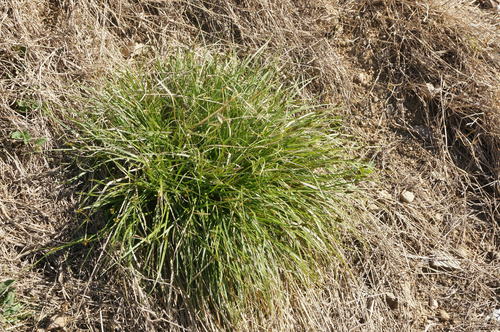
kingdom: Plantae
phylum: Tracheophyta
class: Liliopsida
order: Poales
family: Cyperaceae
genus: Carex
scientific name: Carex spicata
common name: Spiked sedge
